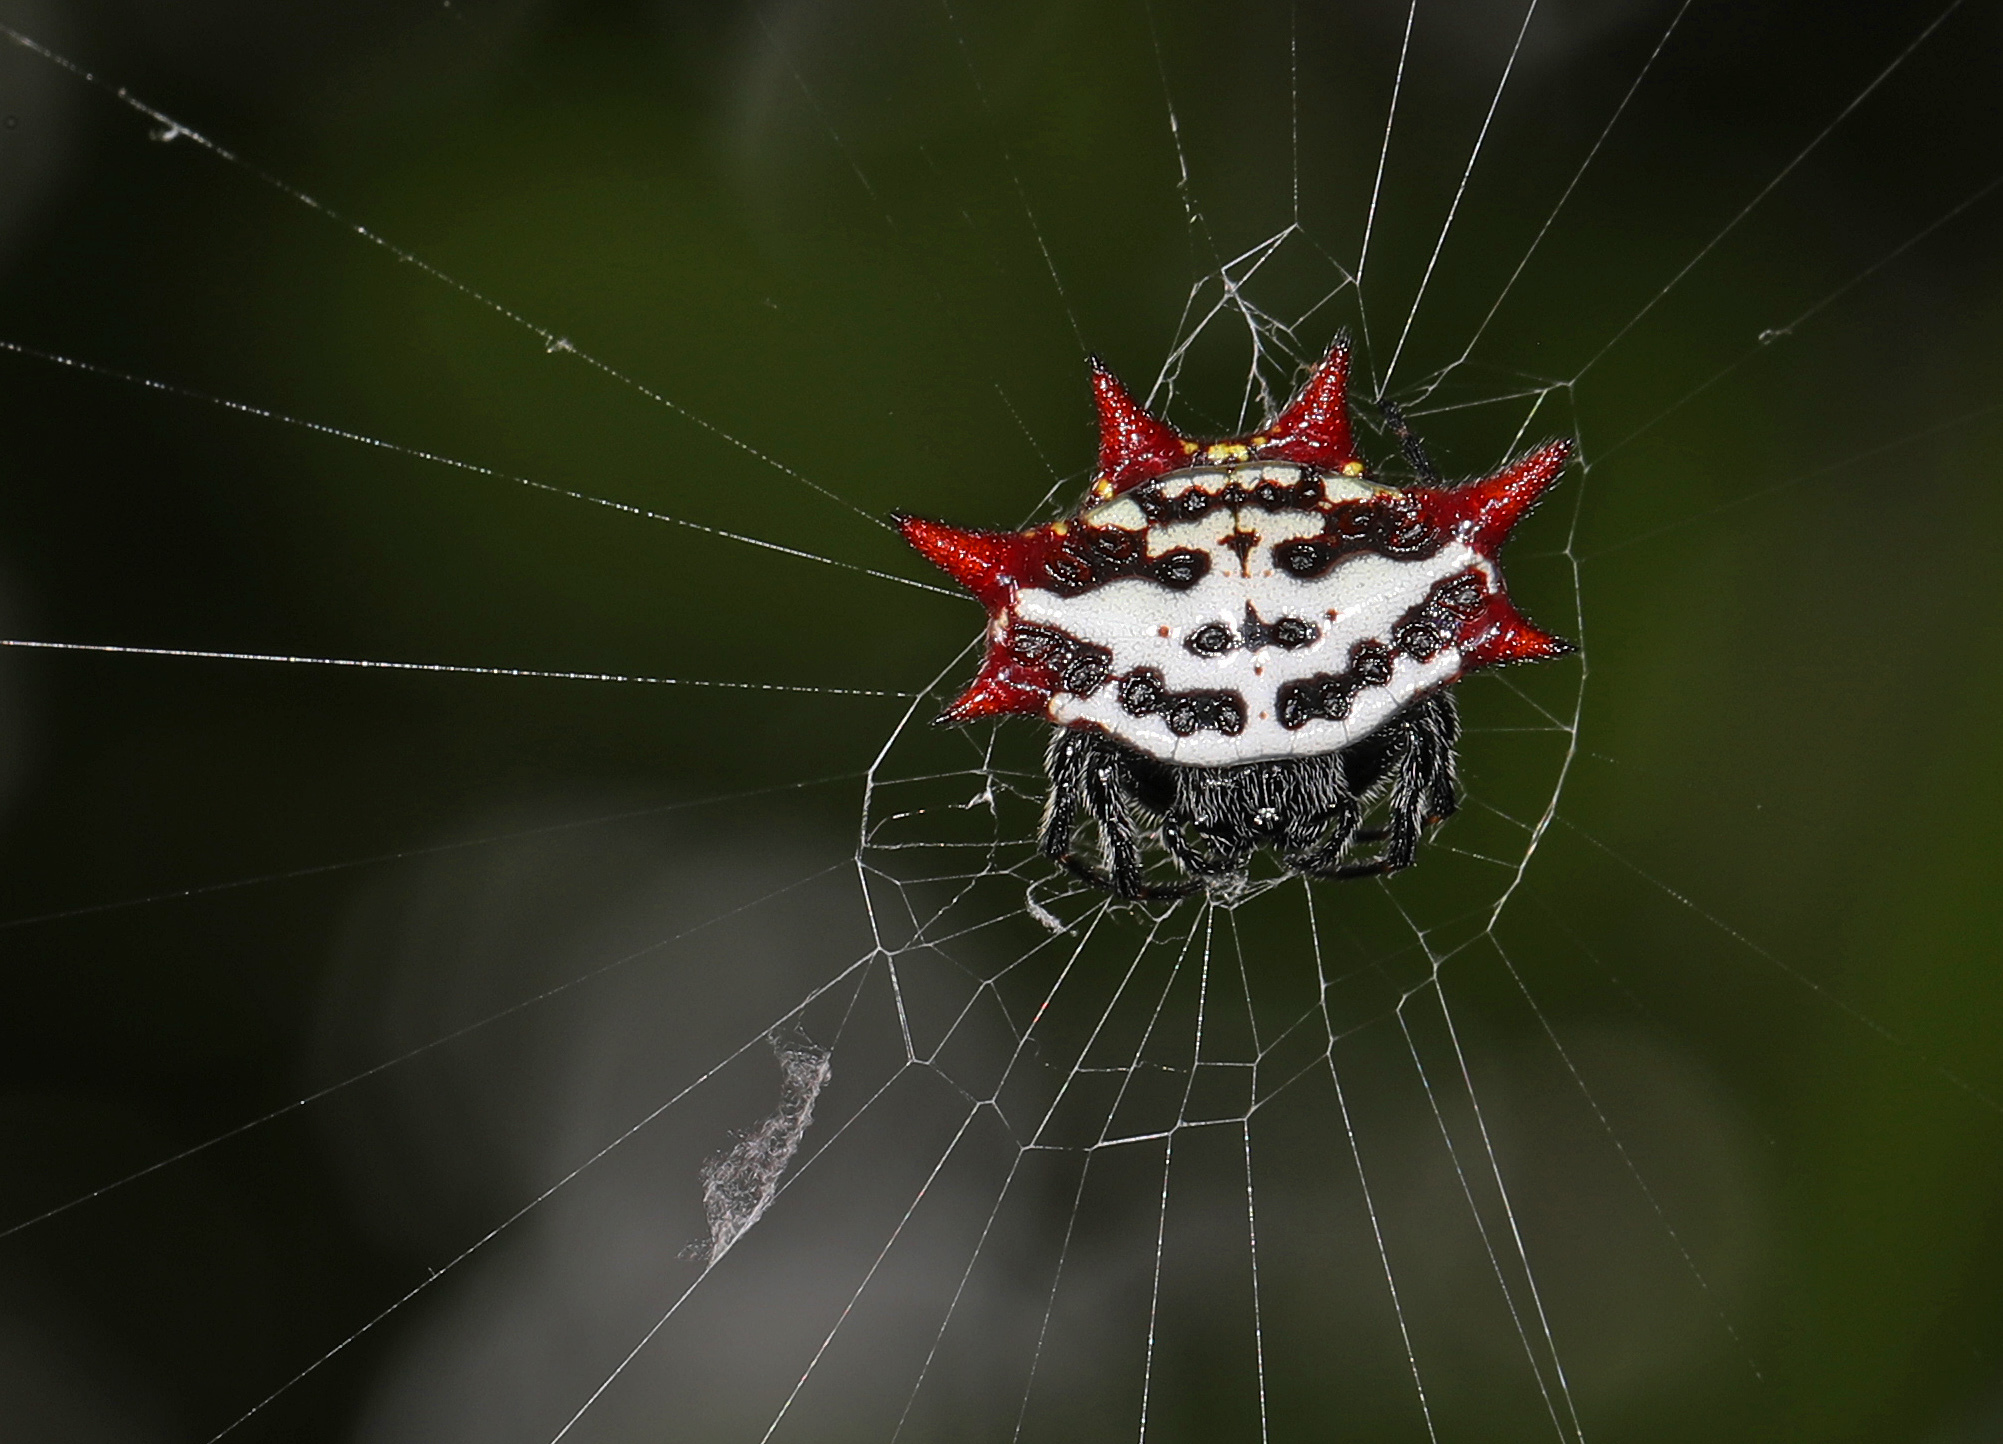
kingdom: Animalia
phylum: Arthropoda
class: Arachnida
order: Araneae
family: Araneidae
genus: Gasteracantha
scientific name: Gasteracantha cancriformis
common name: Orb weavers
